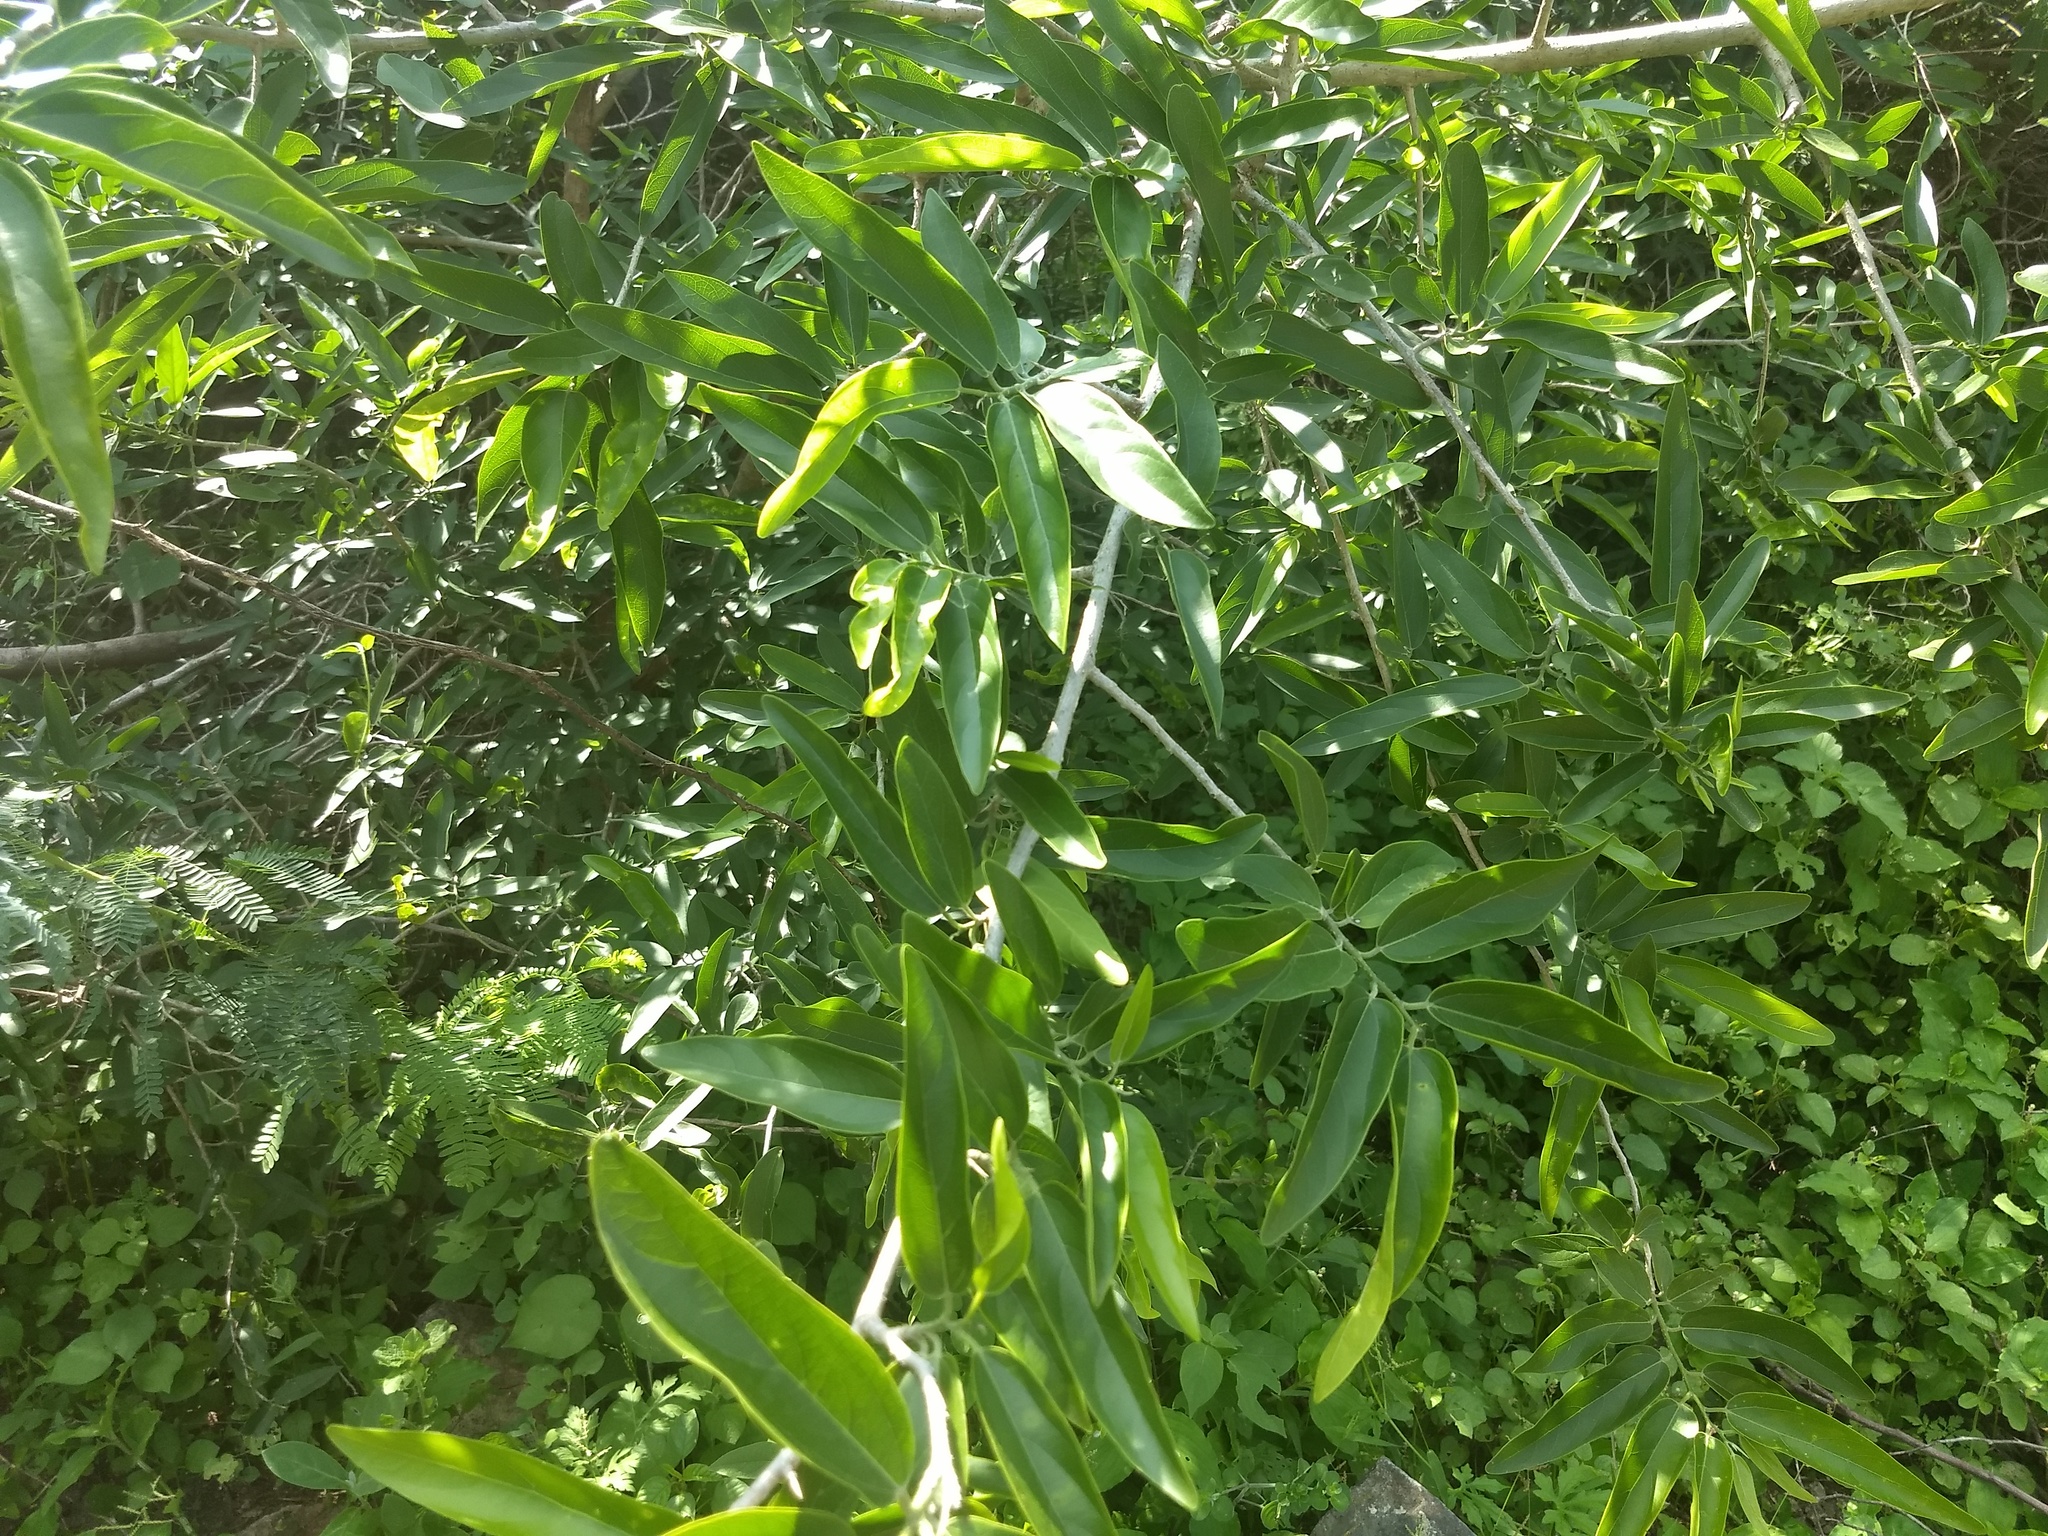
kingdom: Plantae
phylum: Tracheophyta
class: Magnoliopsida
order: Cornales
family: Cornaceae
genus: Alangium
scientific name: Alangium salviifolium
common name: Sage-leaf alangium
